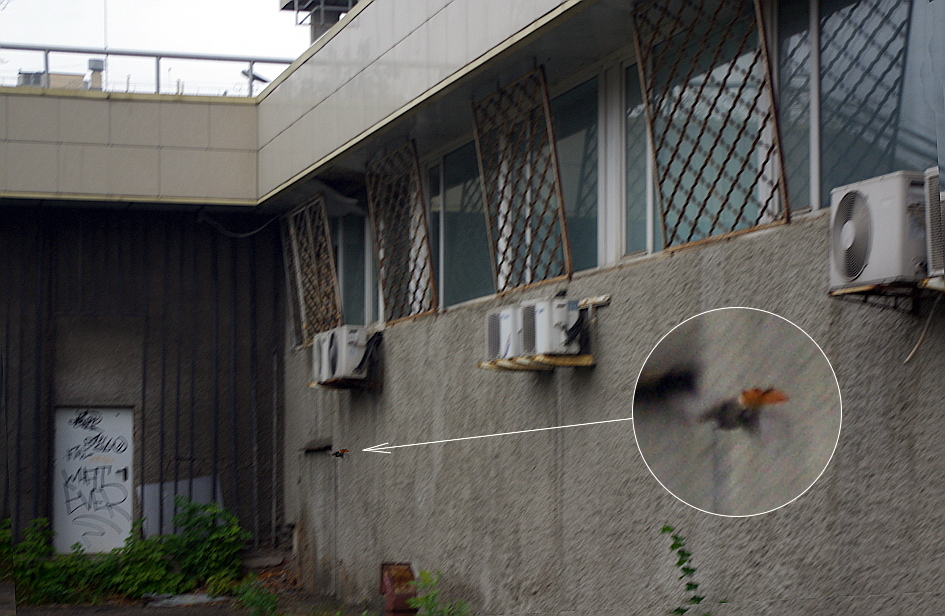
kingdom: Animalia
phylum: Chordata
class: Aves
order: Passeriformes
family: Muscicapidae
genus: Phoenicurus
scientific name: Phoenicurus ochruros
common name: Black redstart
